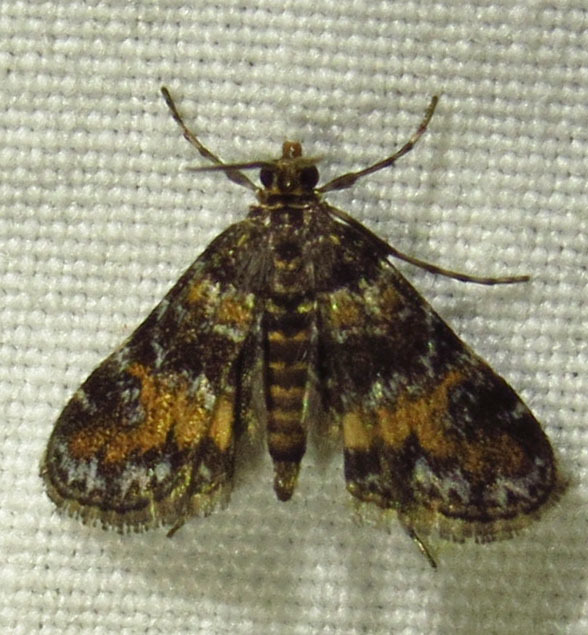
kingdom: Animalia
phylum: Arthropoda
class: Insecta
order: Lepidoptera
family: Crambidae
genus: Elophila
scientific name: Elophila obliteralis
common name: Waterlily leafcutter moth
